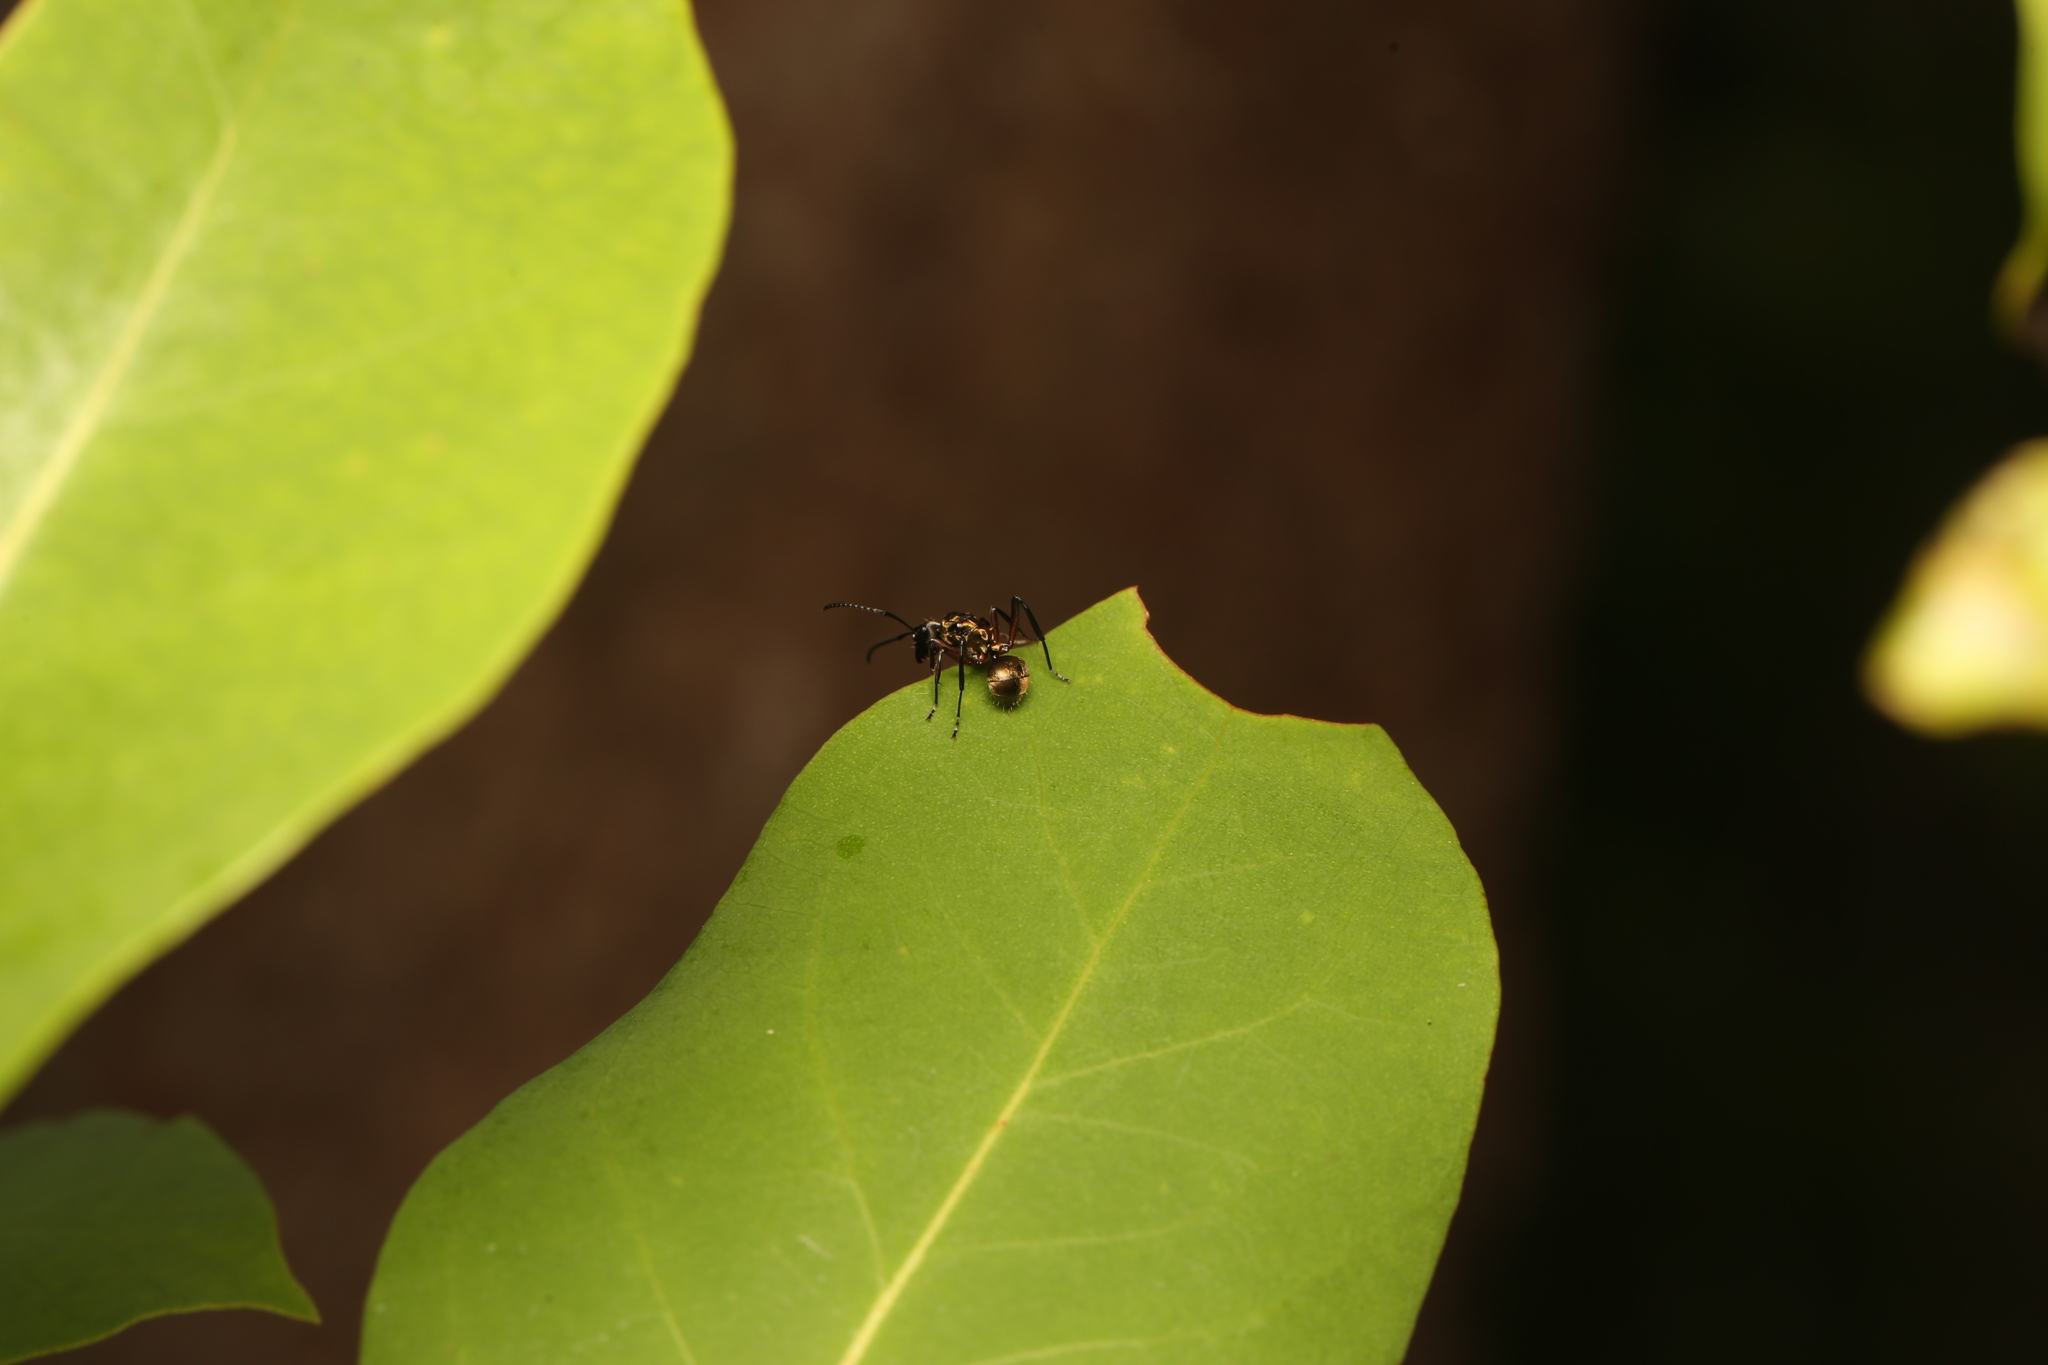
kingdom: Animalia
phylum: Arthropoda
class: Insecta
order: Hymenoptera
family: Formicidae
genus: Polyrhachis
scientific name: Polyrhachis rufifemur
